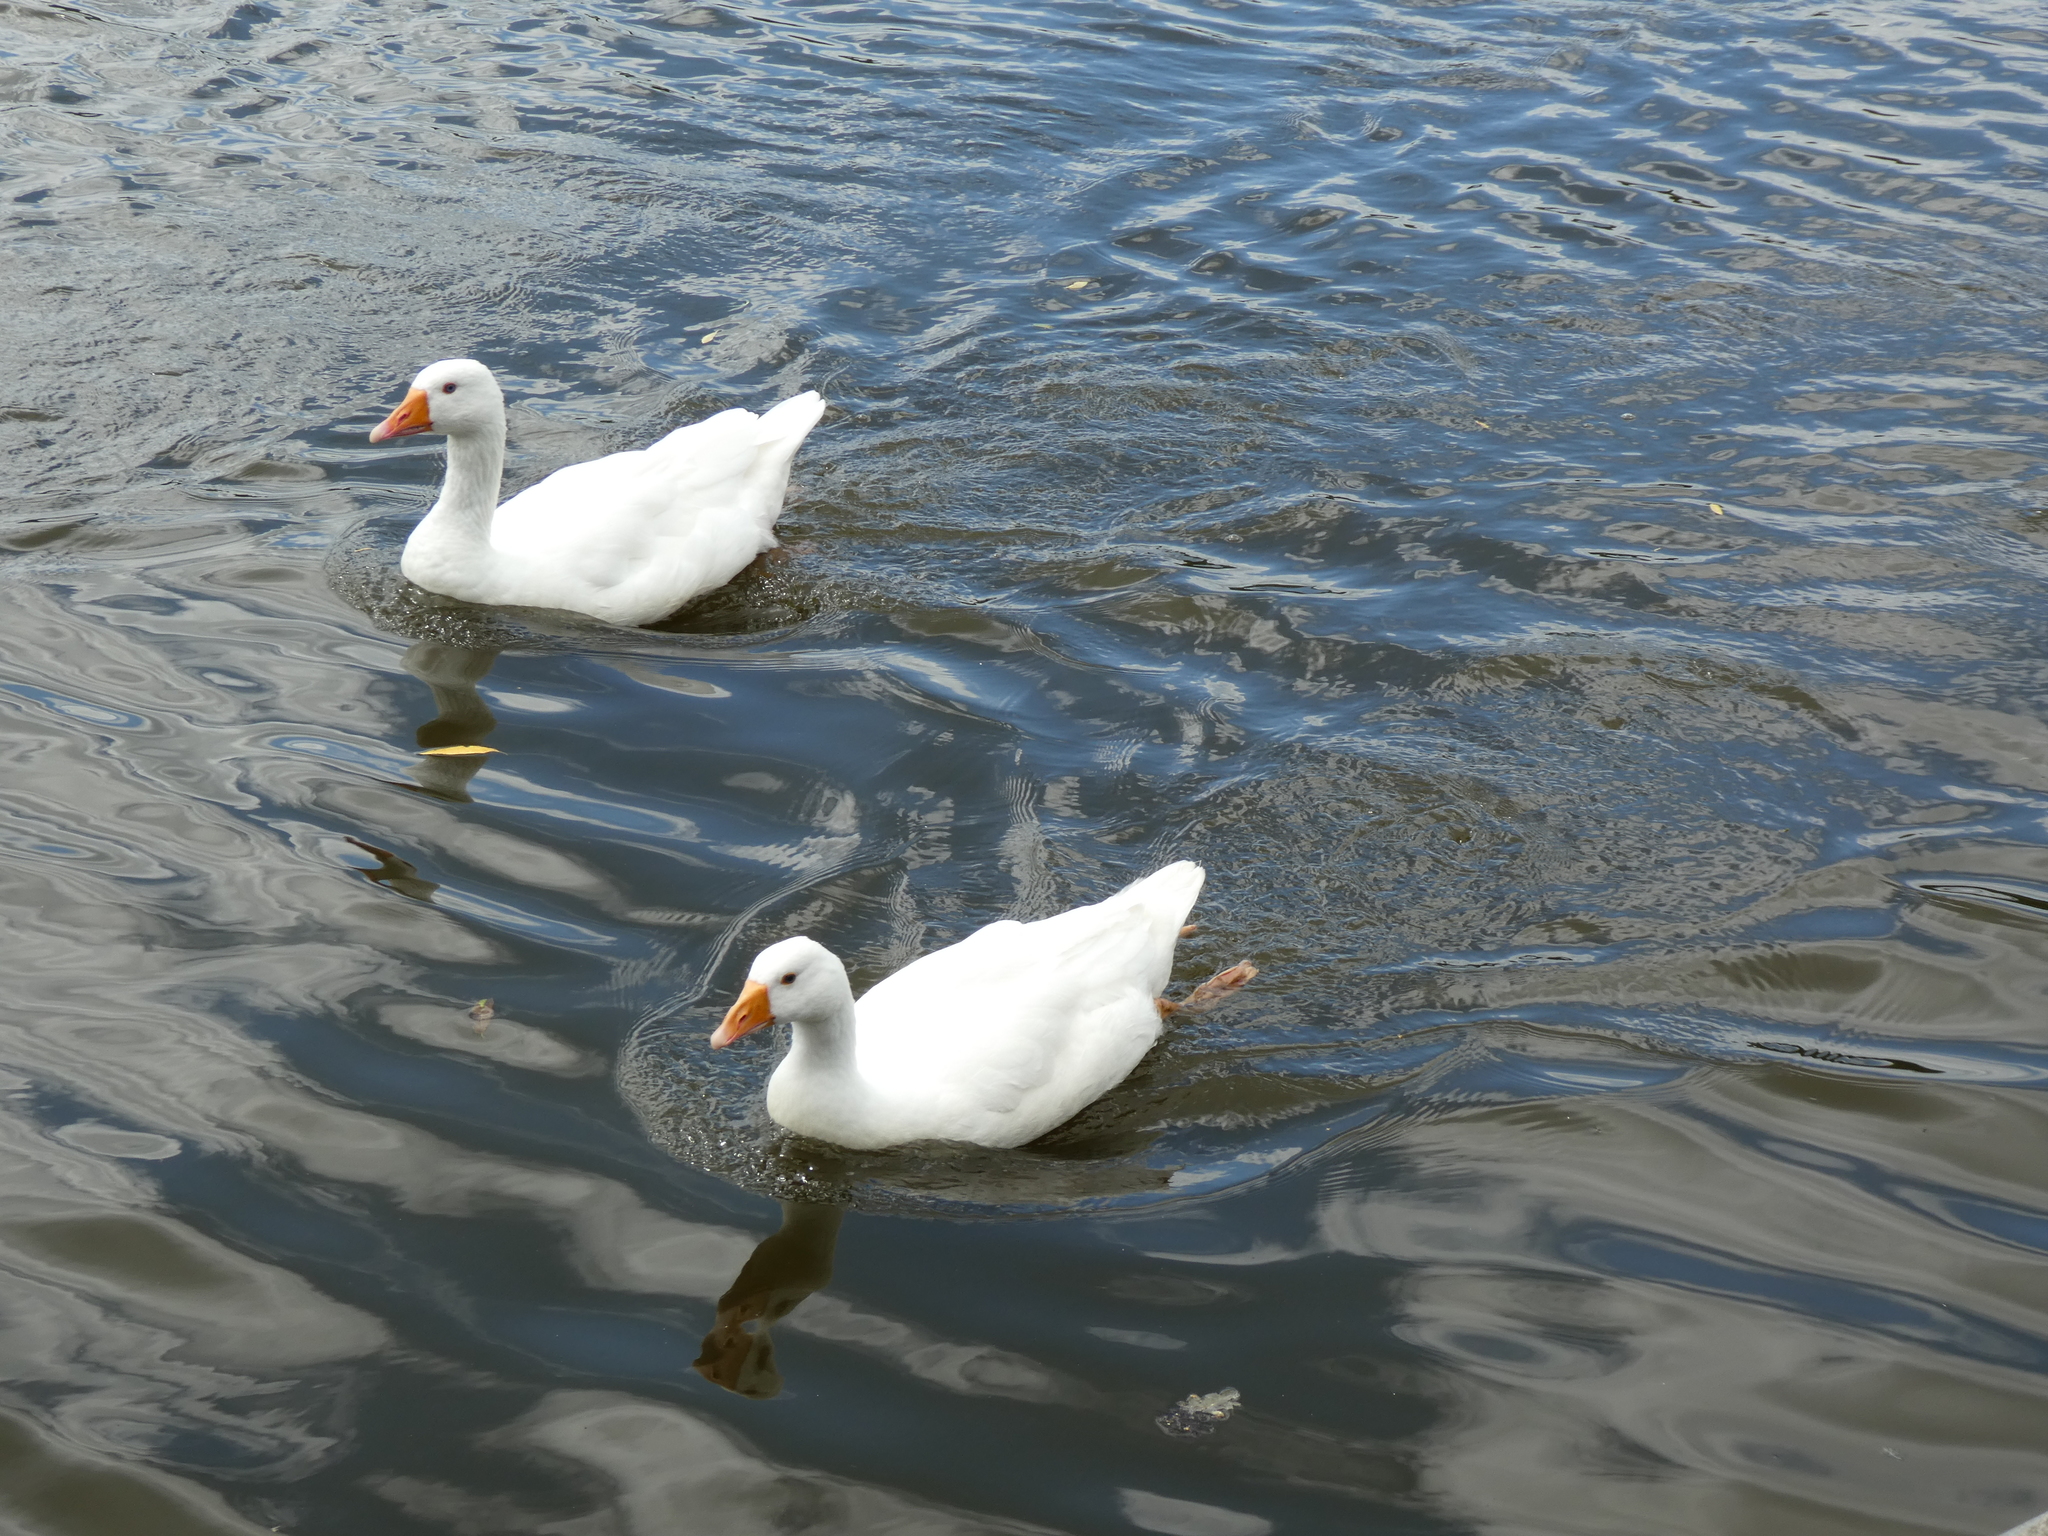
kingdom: Animalia
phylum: Chordata
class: Aves
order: Anseriformes
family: Anatidae
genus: Anser
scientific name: Anser anser
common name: Greylag goose
